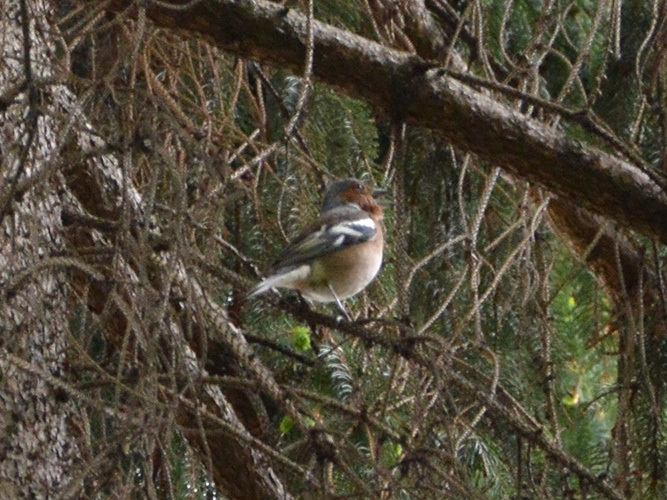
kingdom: Animalia
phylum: Chordata
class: Aves
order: Passeriformes
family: Fringillidae
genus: Fringilla
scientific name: Fringilla coelebs
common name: Common chaffinch
